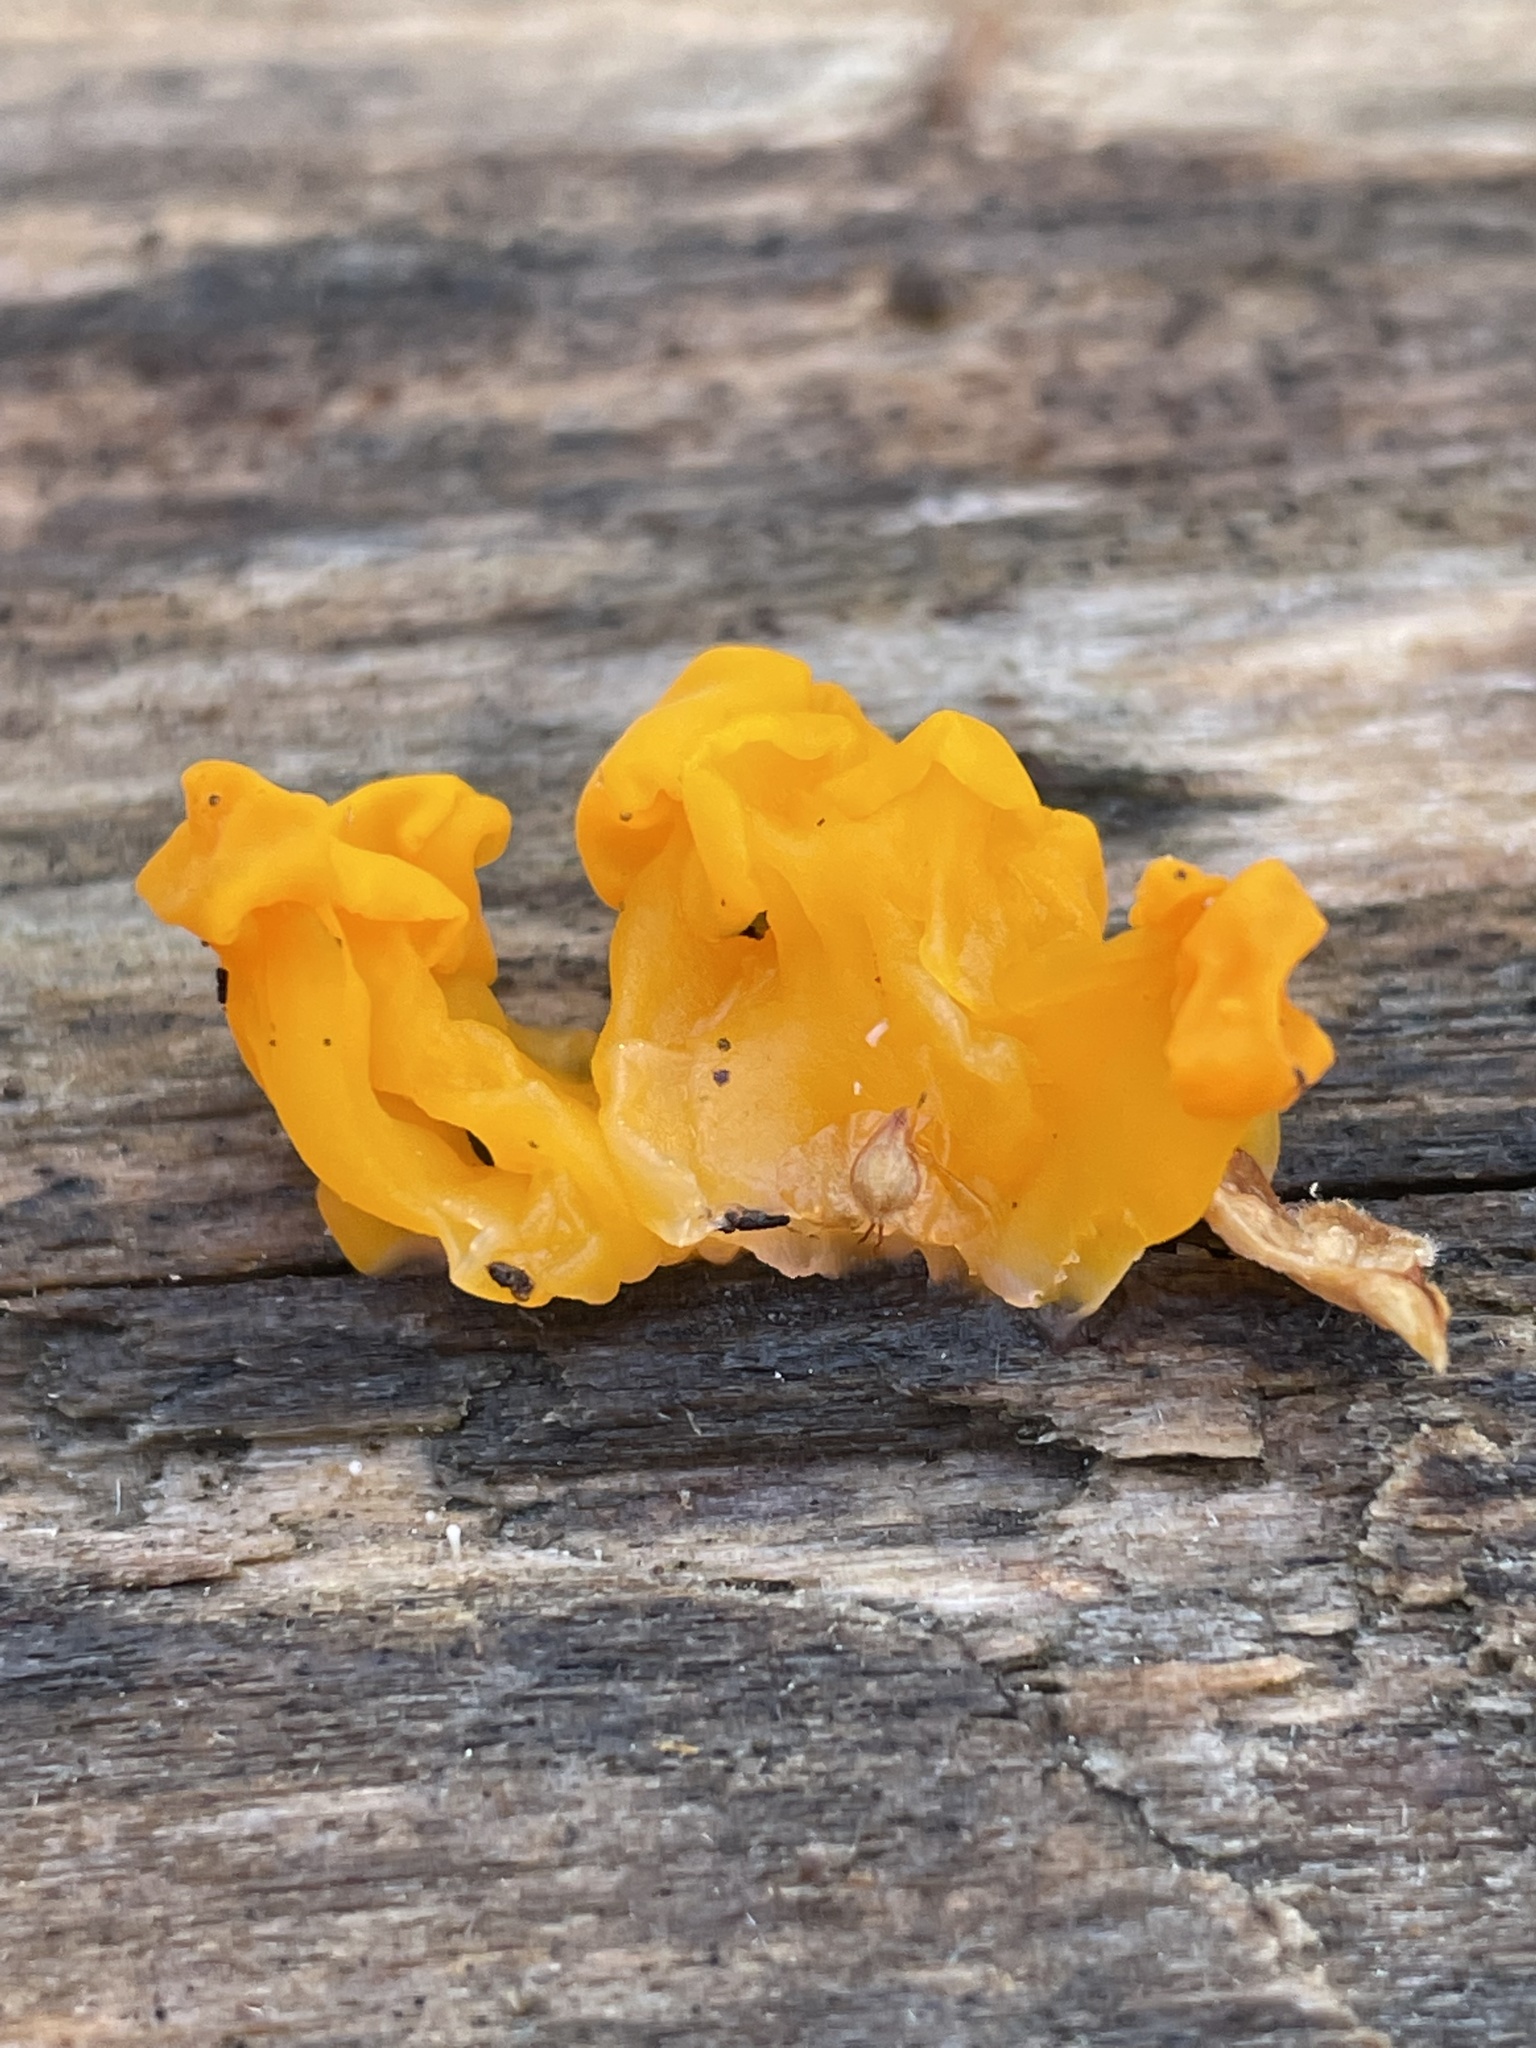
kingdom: Fungi
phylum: Basidiomycota
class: Dacrymycetes
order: Dacrymycetales
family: Dacrymycetaceae
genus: Dacrymyces
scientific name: Dacrymyces chrysospermus
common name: Orange jelly spot
